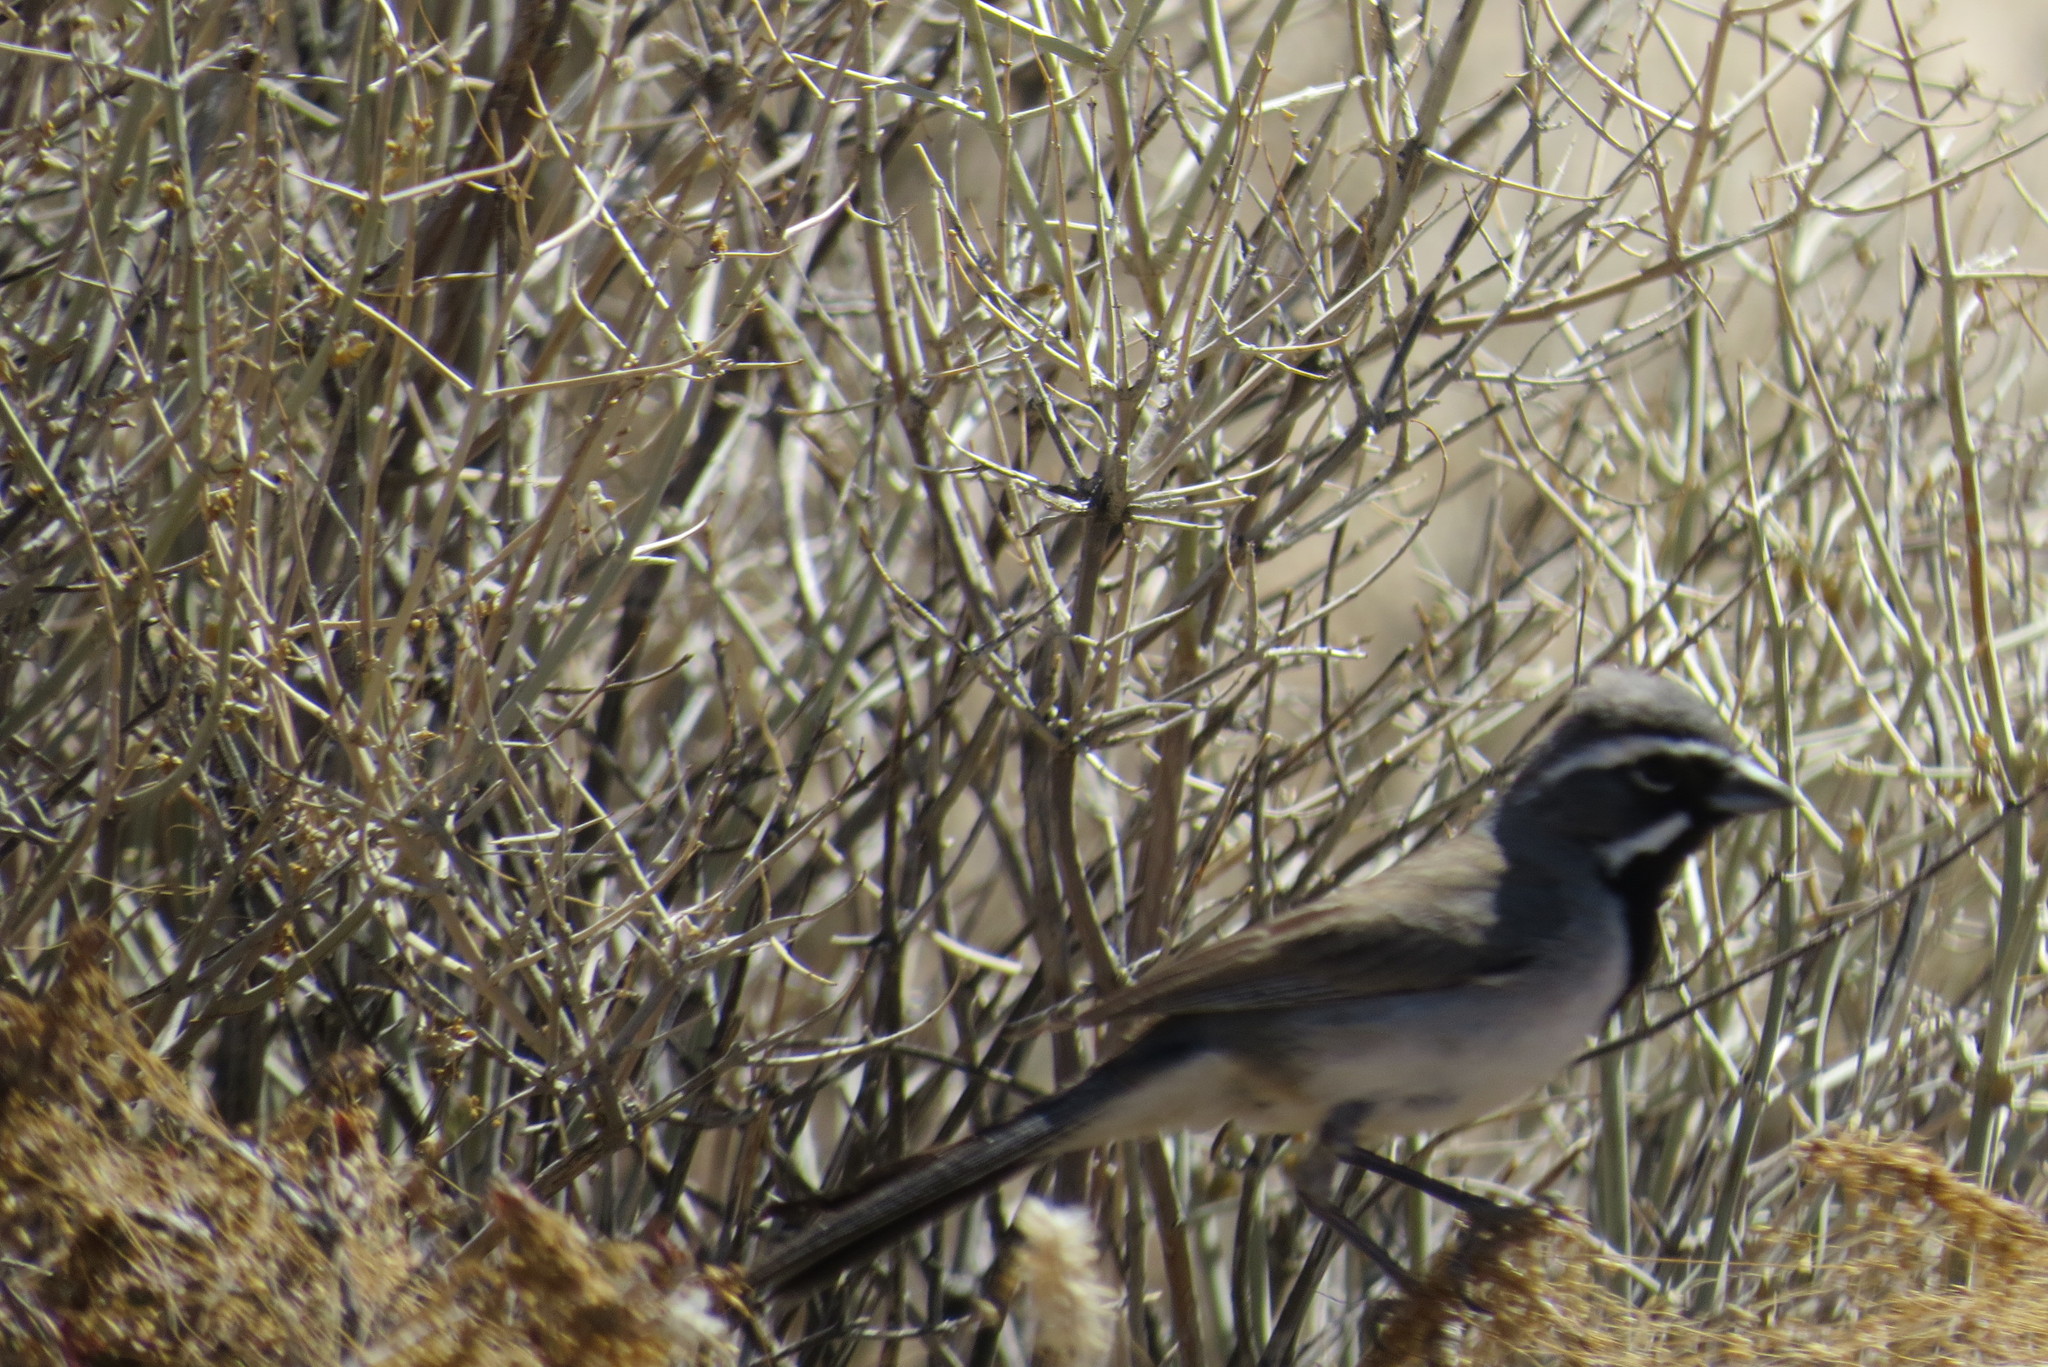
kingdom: Animalia
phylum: Chordata
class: Aves
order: Passeriformes
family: Passerellidae
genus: Amphispiza
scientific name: Amphispiza bilineata
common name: Black-throated sparrow
